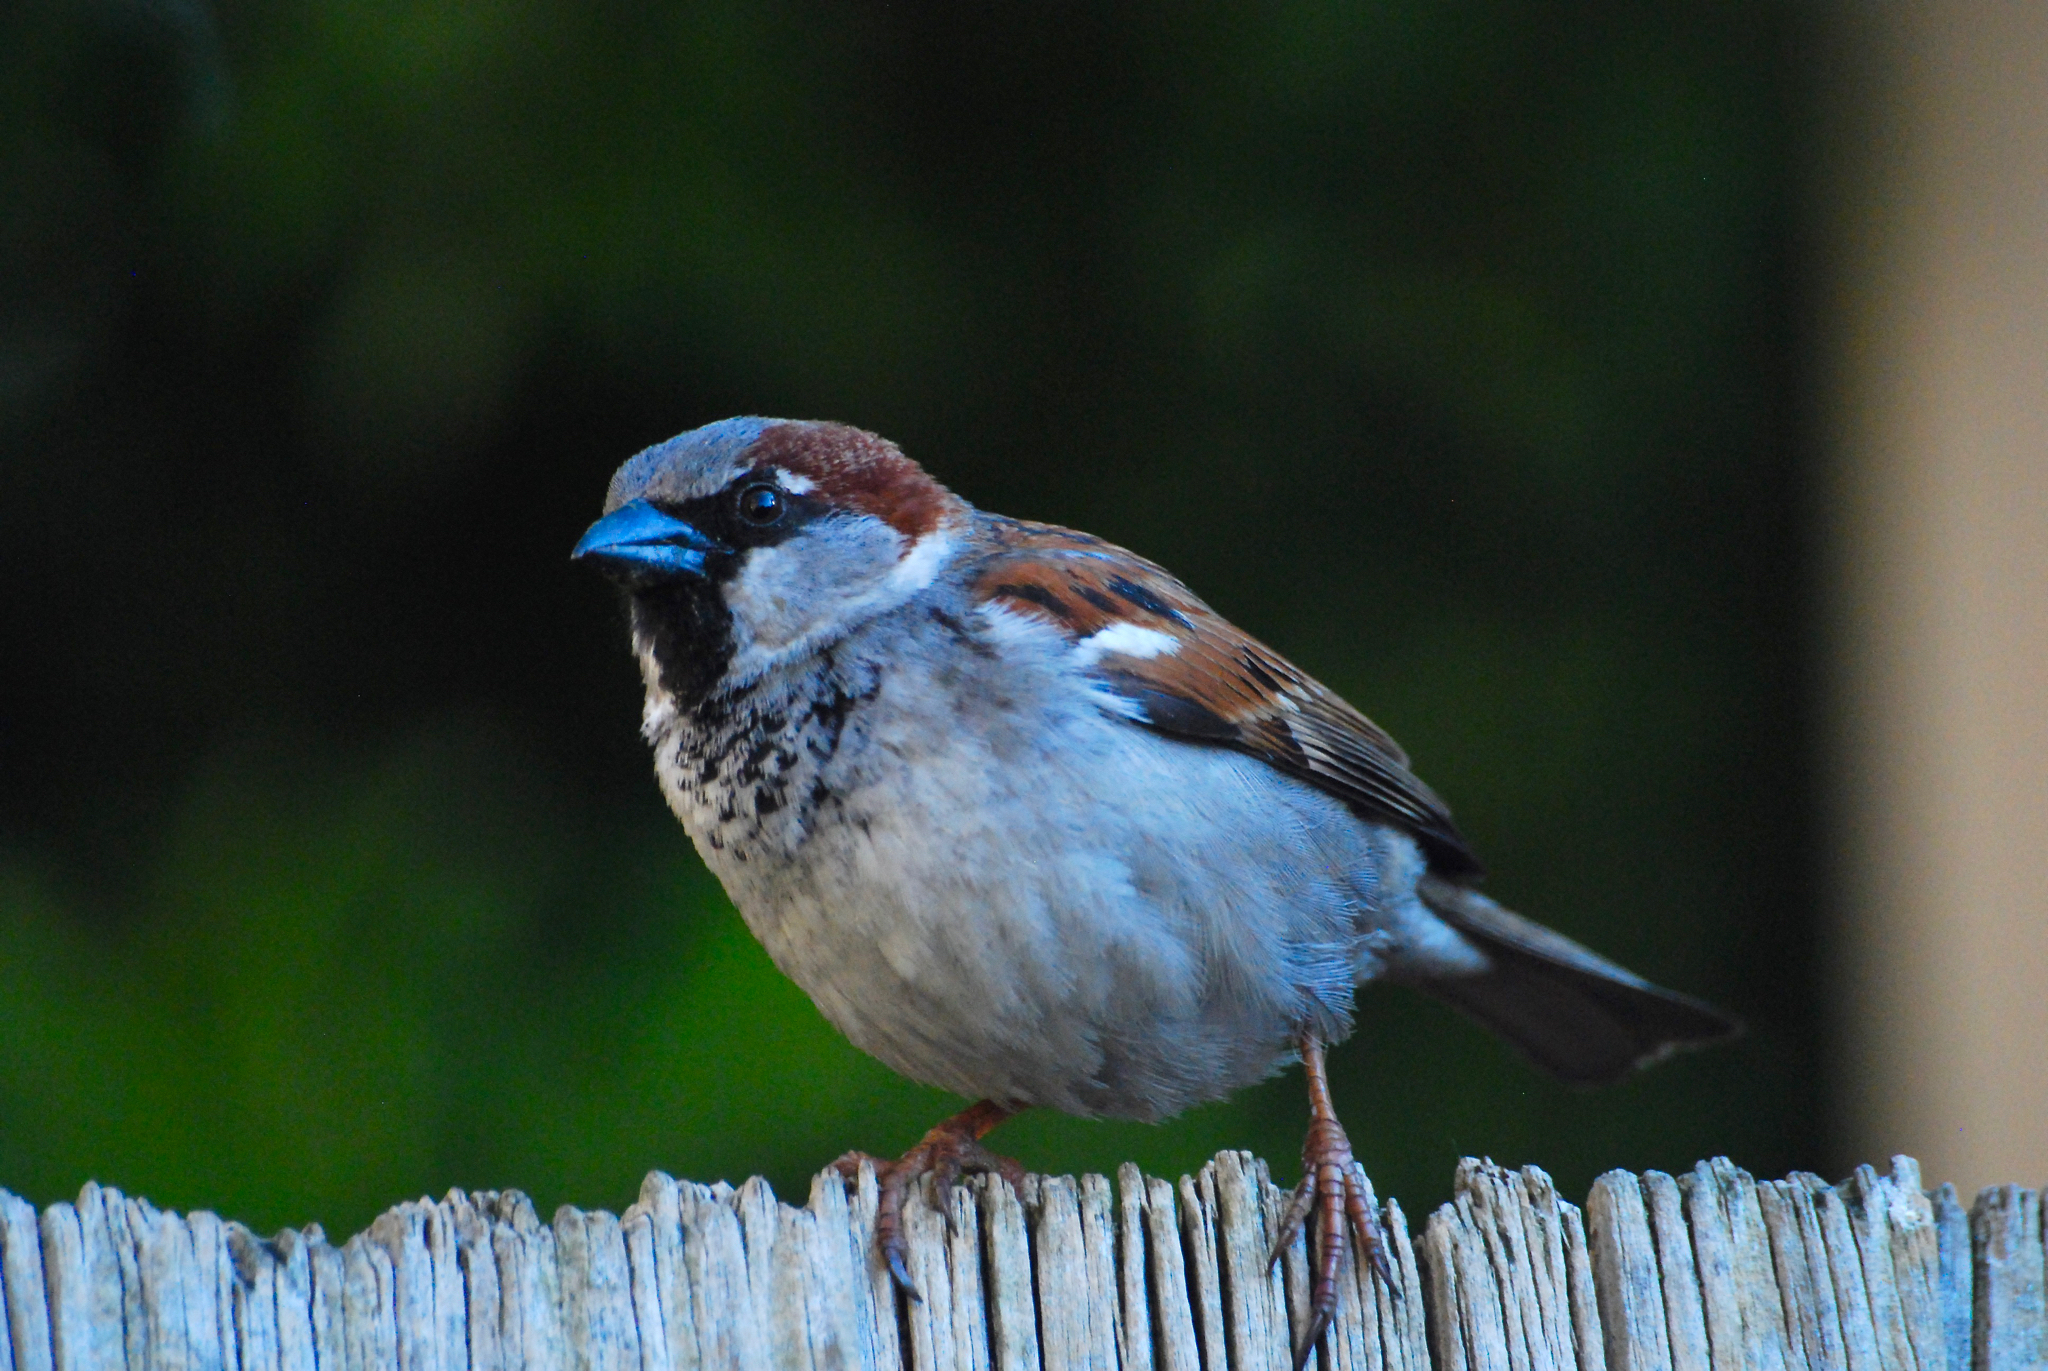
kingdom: Animalia
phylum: Chordata
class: Aves
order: Passeriformes
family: Passeridae
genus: Passer
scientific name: Passer domesticus
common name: House sparrow
